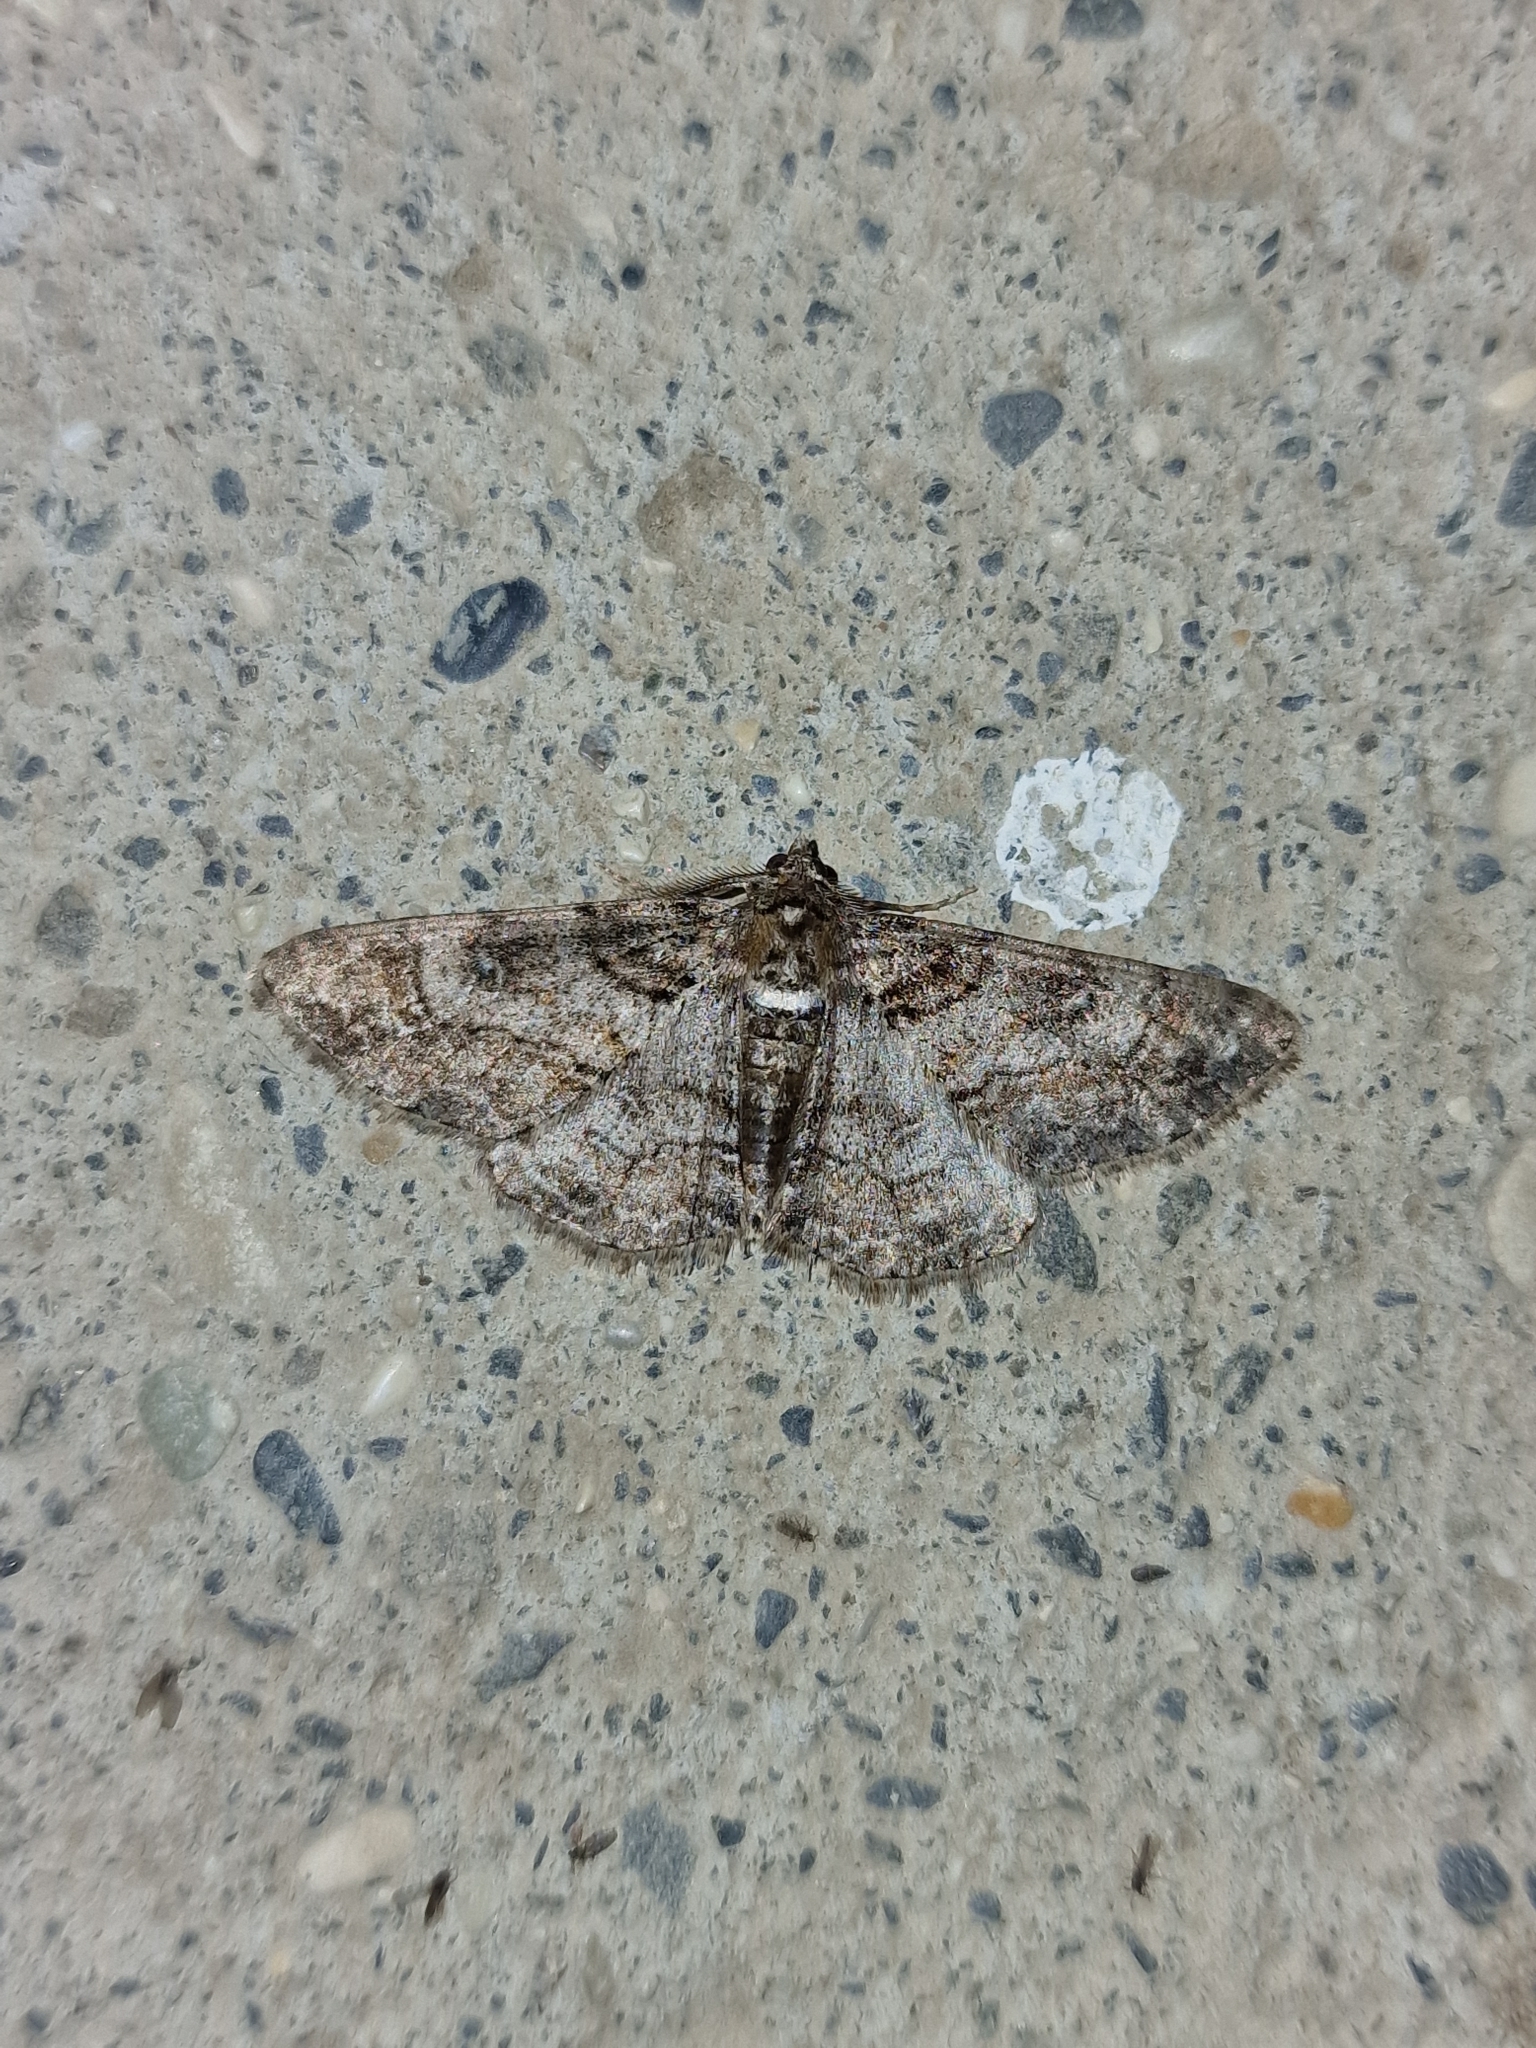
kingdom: Animalia
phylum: Arthropoda
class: Insecta
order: Lepidoptera
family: Geometridae
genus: Cleora
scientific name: Cleora cinctaria
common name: Ringed carpet
